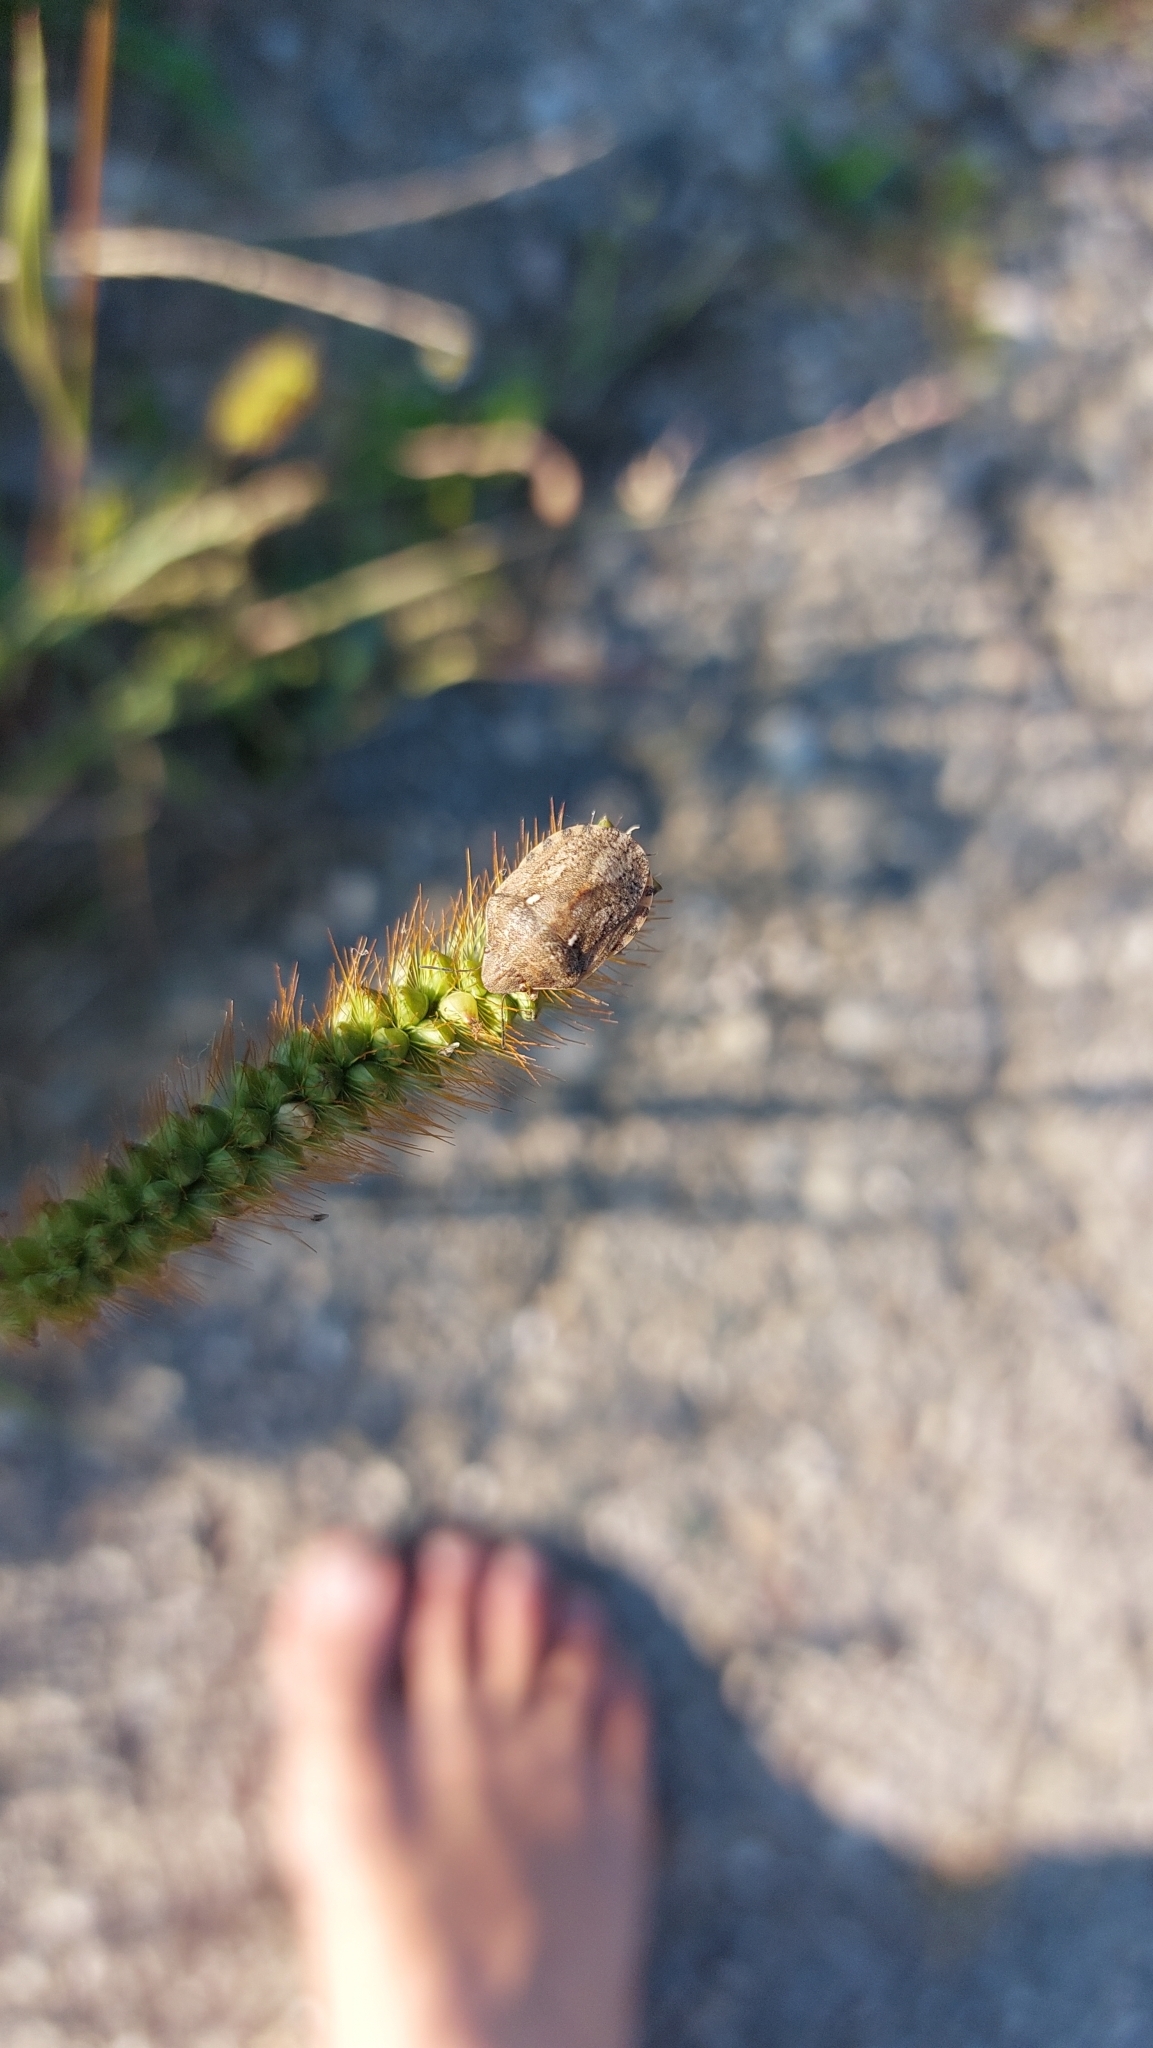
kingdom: Animalia
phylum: Arthropoda
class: Insecta
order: Hemiptera
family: Scutelleridae
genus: Eurygaster
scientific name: Eurygaster maura
